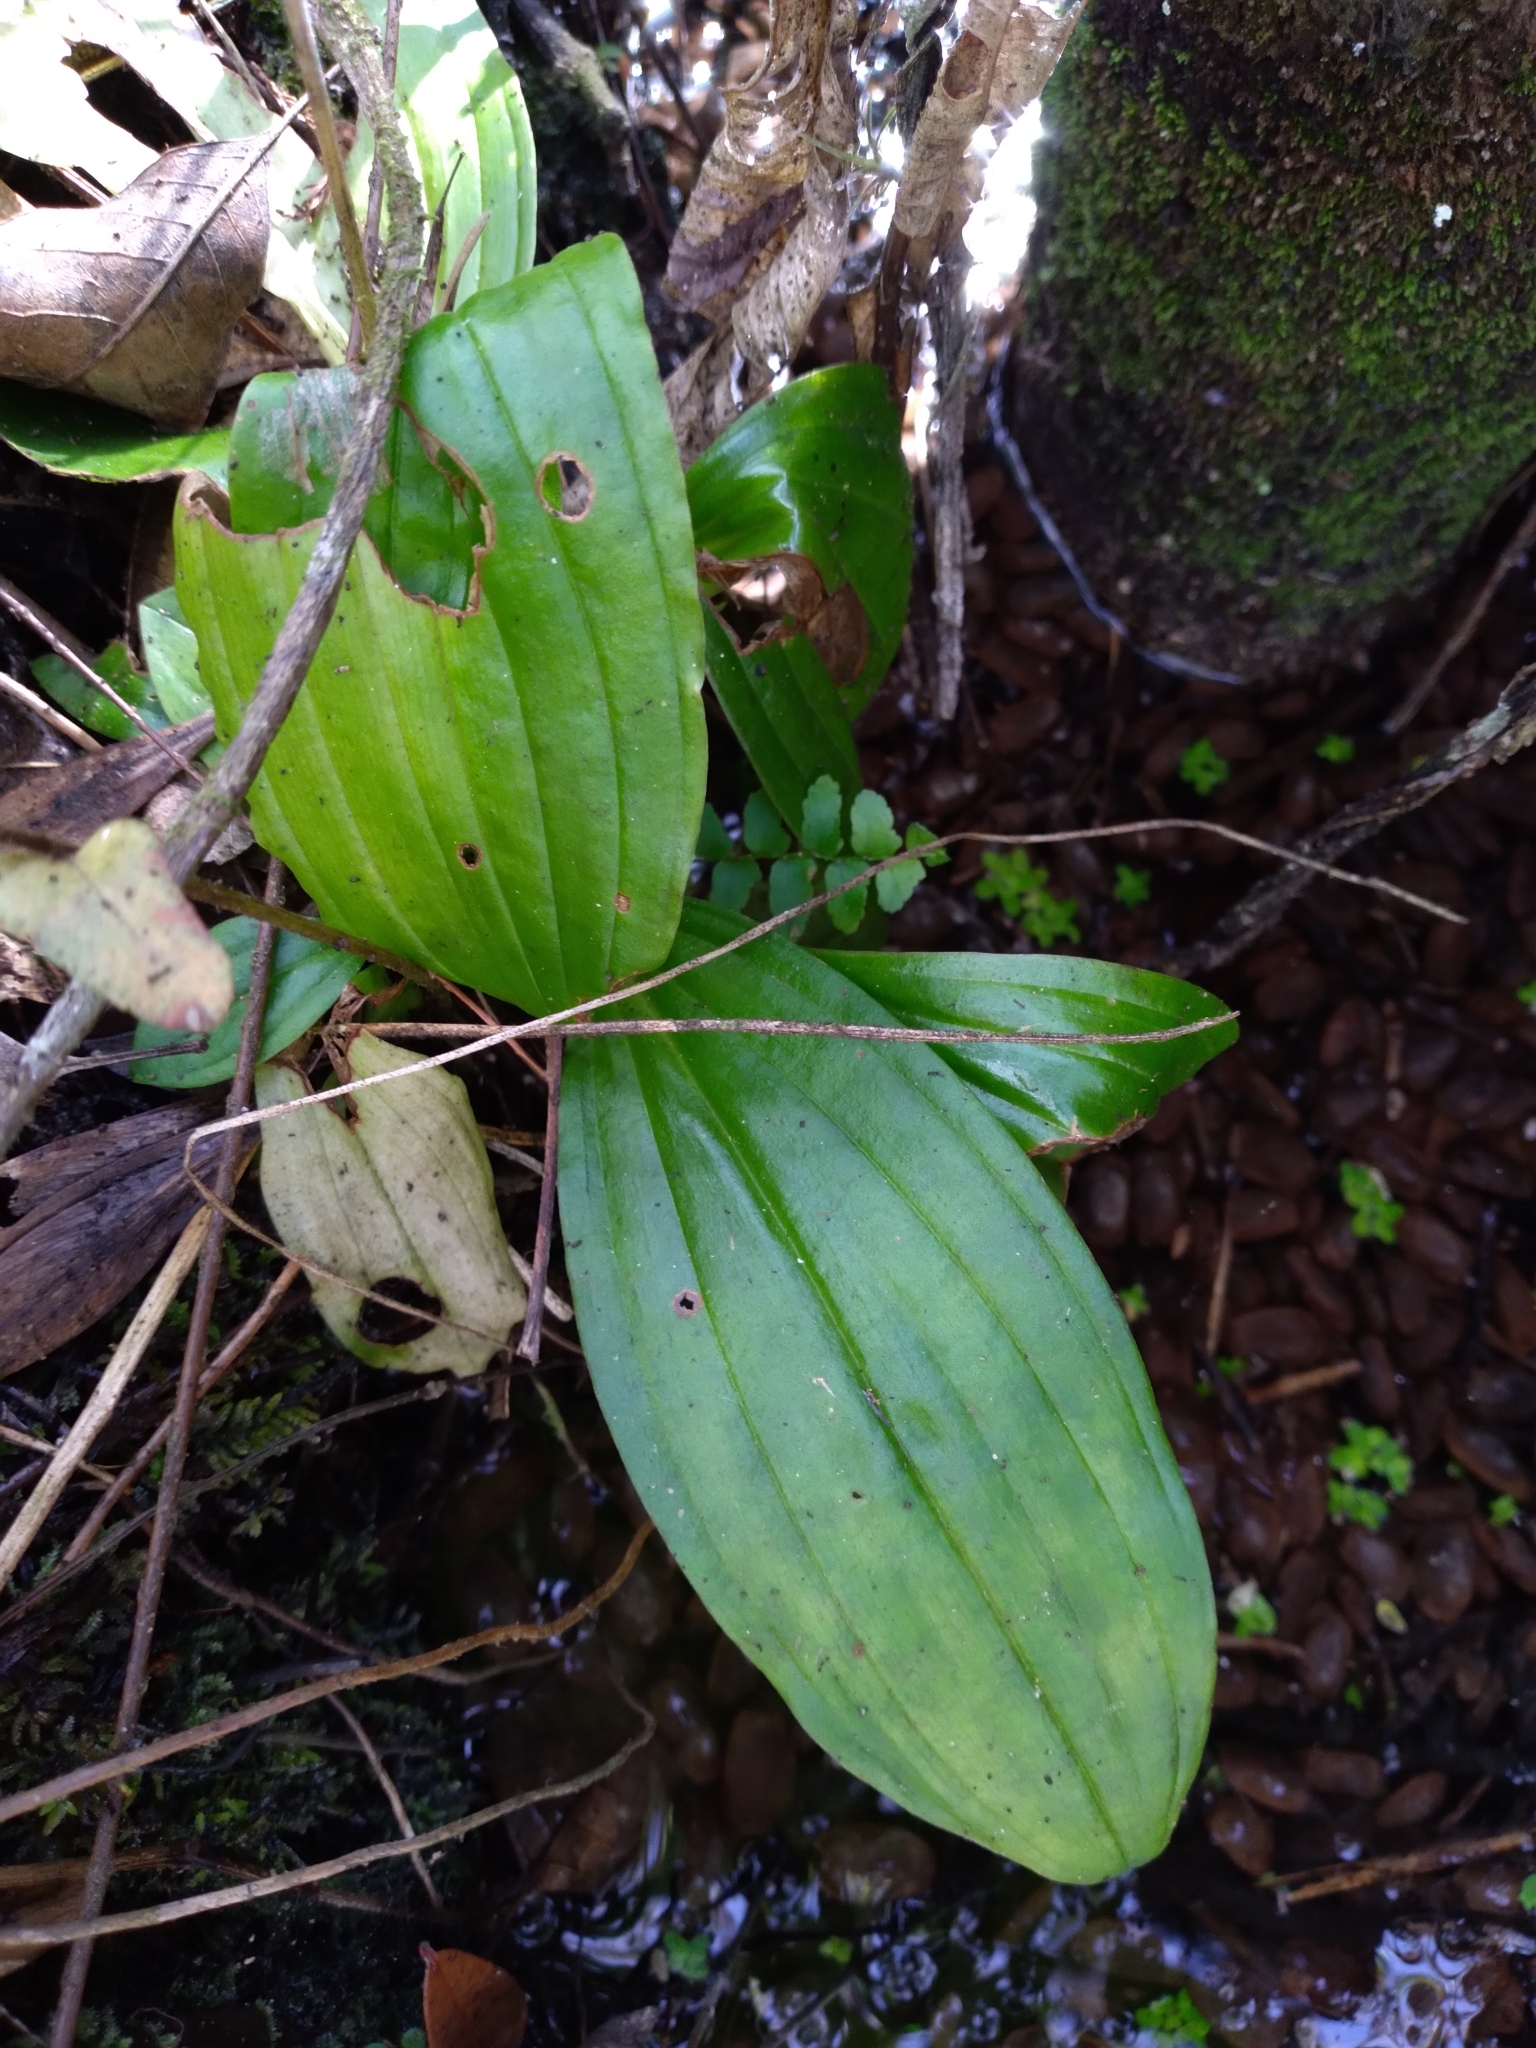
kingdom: Plantae
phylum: Tracheophyta
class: Liliopsida
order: Asparagales
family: Orchidaceae
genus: Liparis
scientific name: Liparis nervosa
